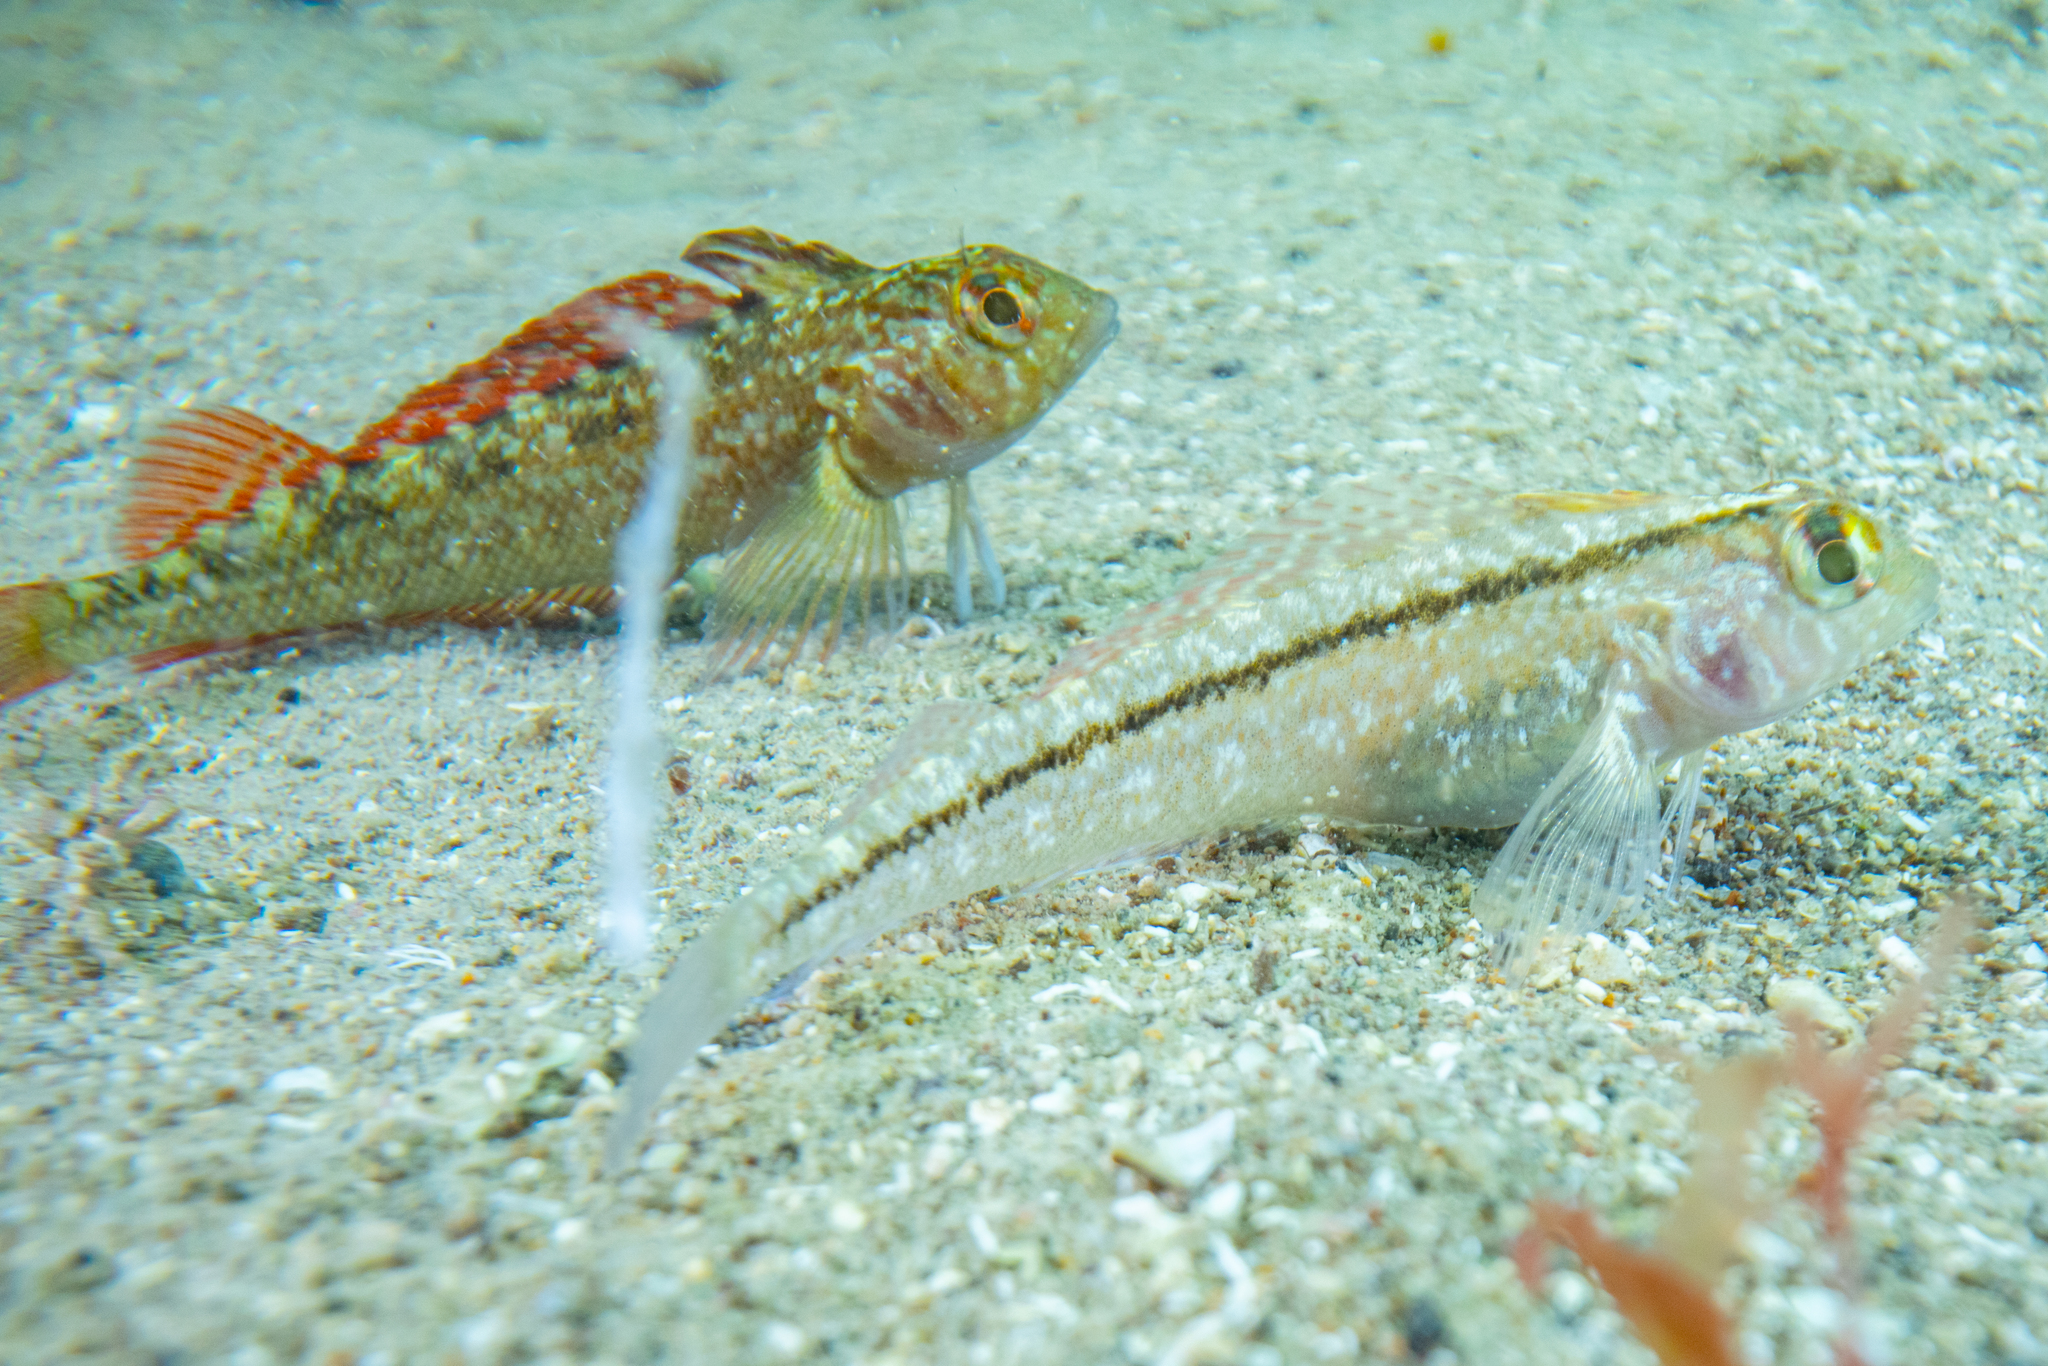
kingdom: Animalia
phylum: Chordata
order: Perciformes
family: Tripterygiidae
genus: Forsterygion
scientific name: Forsterygion lapillum
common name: Common triplefin
